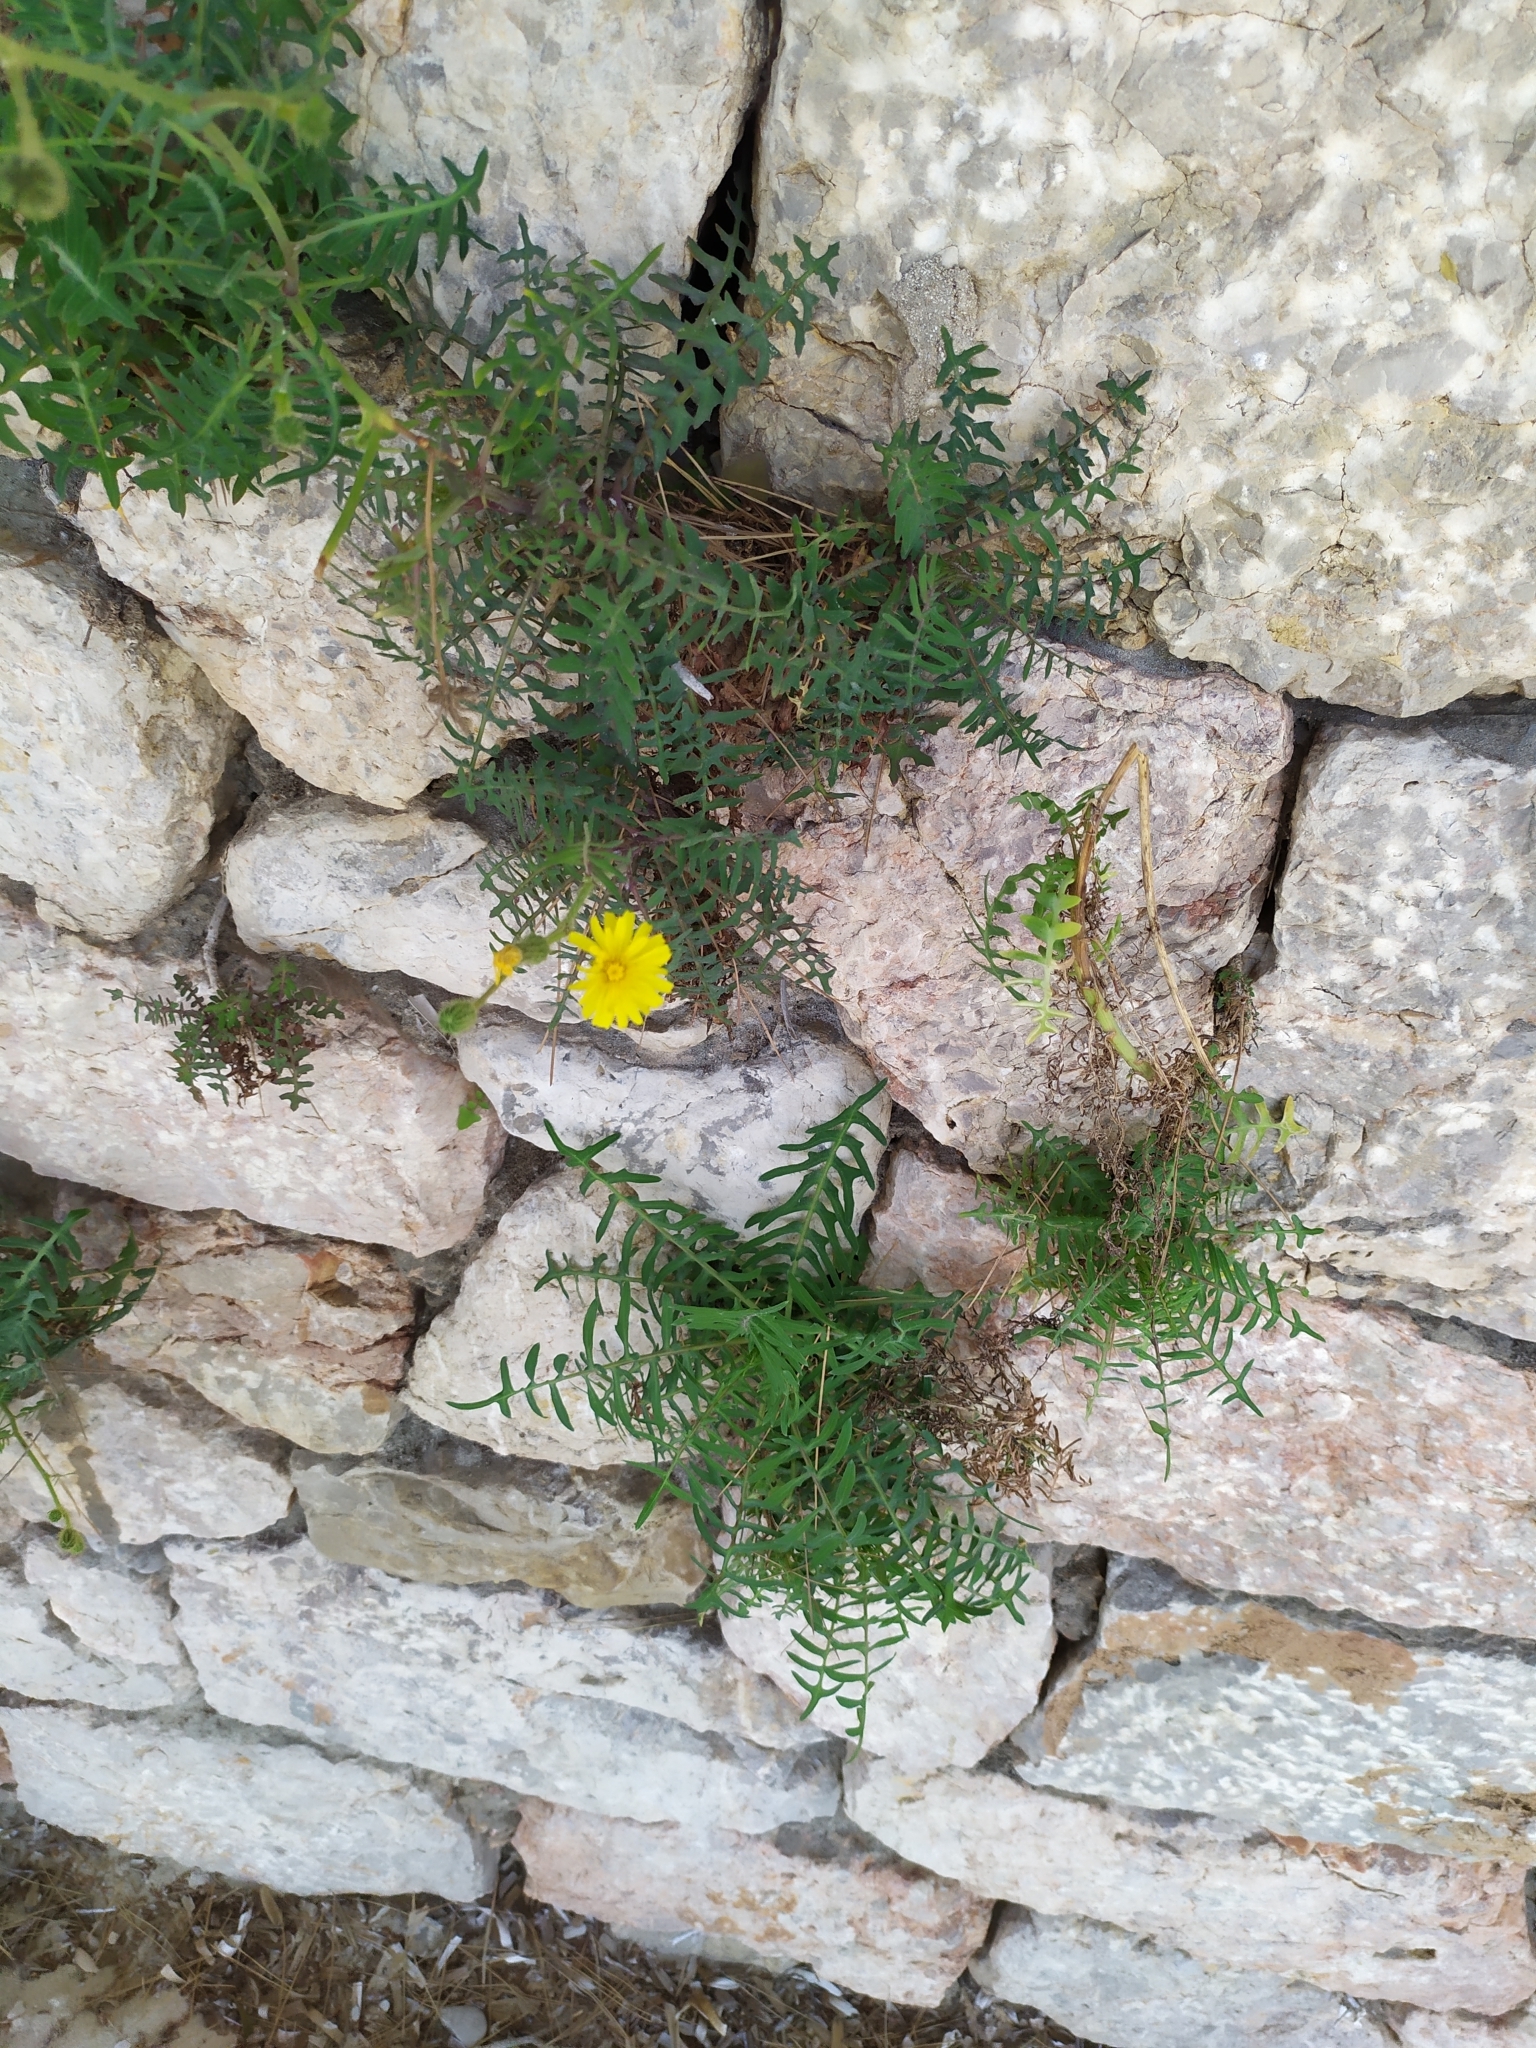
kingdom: Plantae
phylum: Tracheophyta
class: Magnoliopsida
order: Asterales
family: Asteraceae
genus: Sonchus
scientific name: Sonchus tenerrimus
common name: Clammy sowthistle
